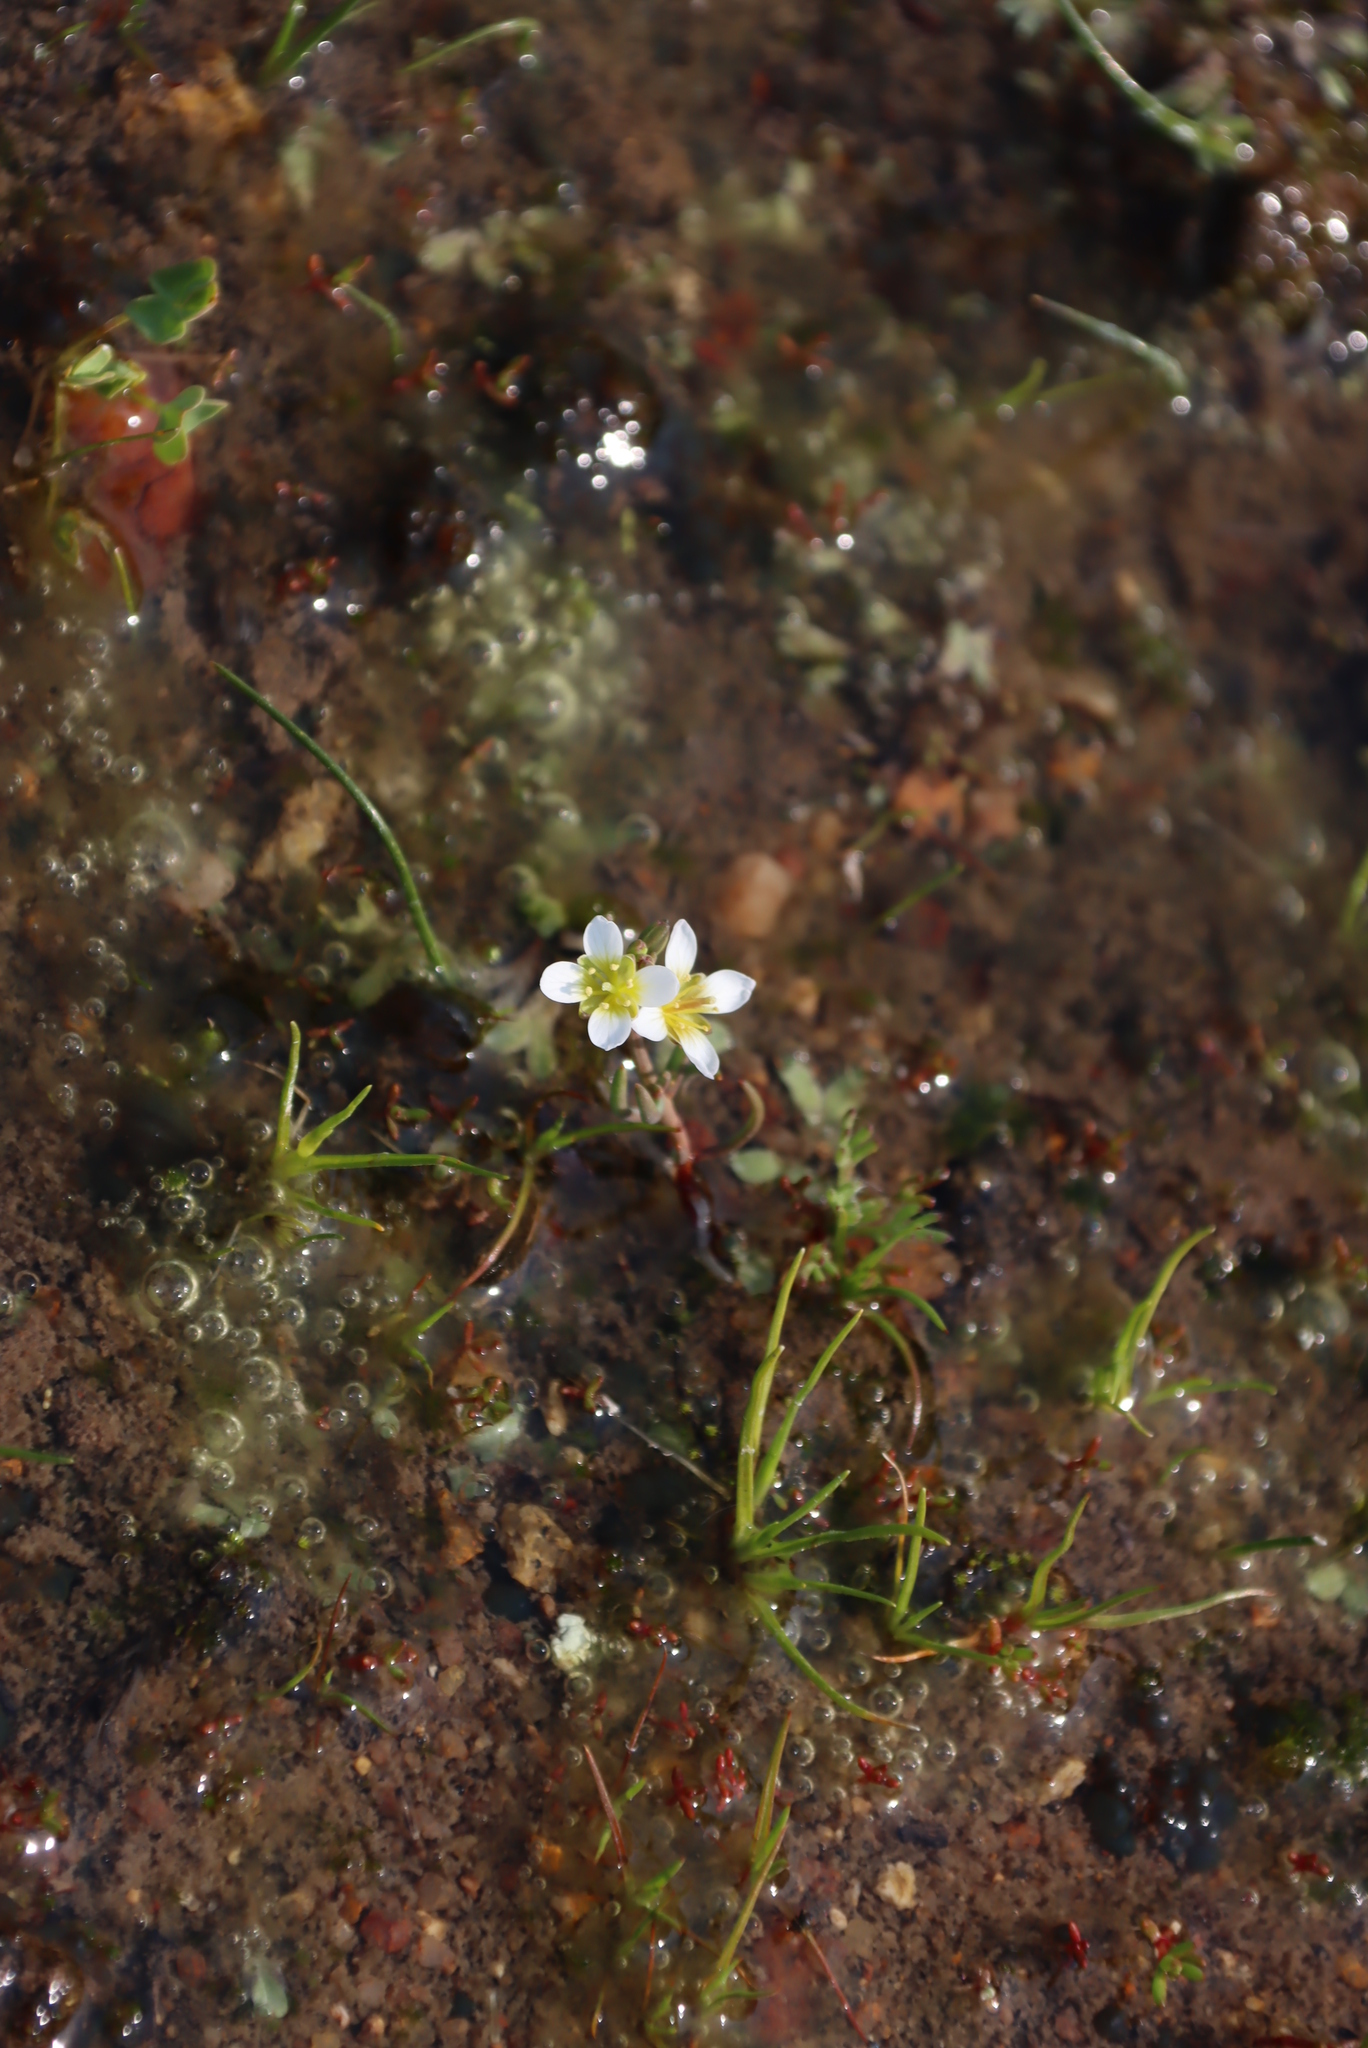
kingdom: Plantae
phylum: Tracheophyta
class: Magnoliopsida
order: Brassicales
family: Brassicaceae
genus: Heliophila
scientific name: Heliophila namaquana
